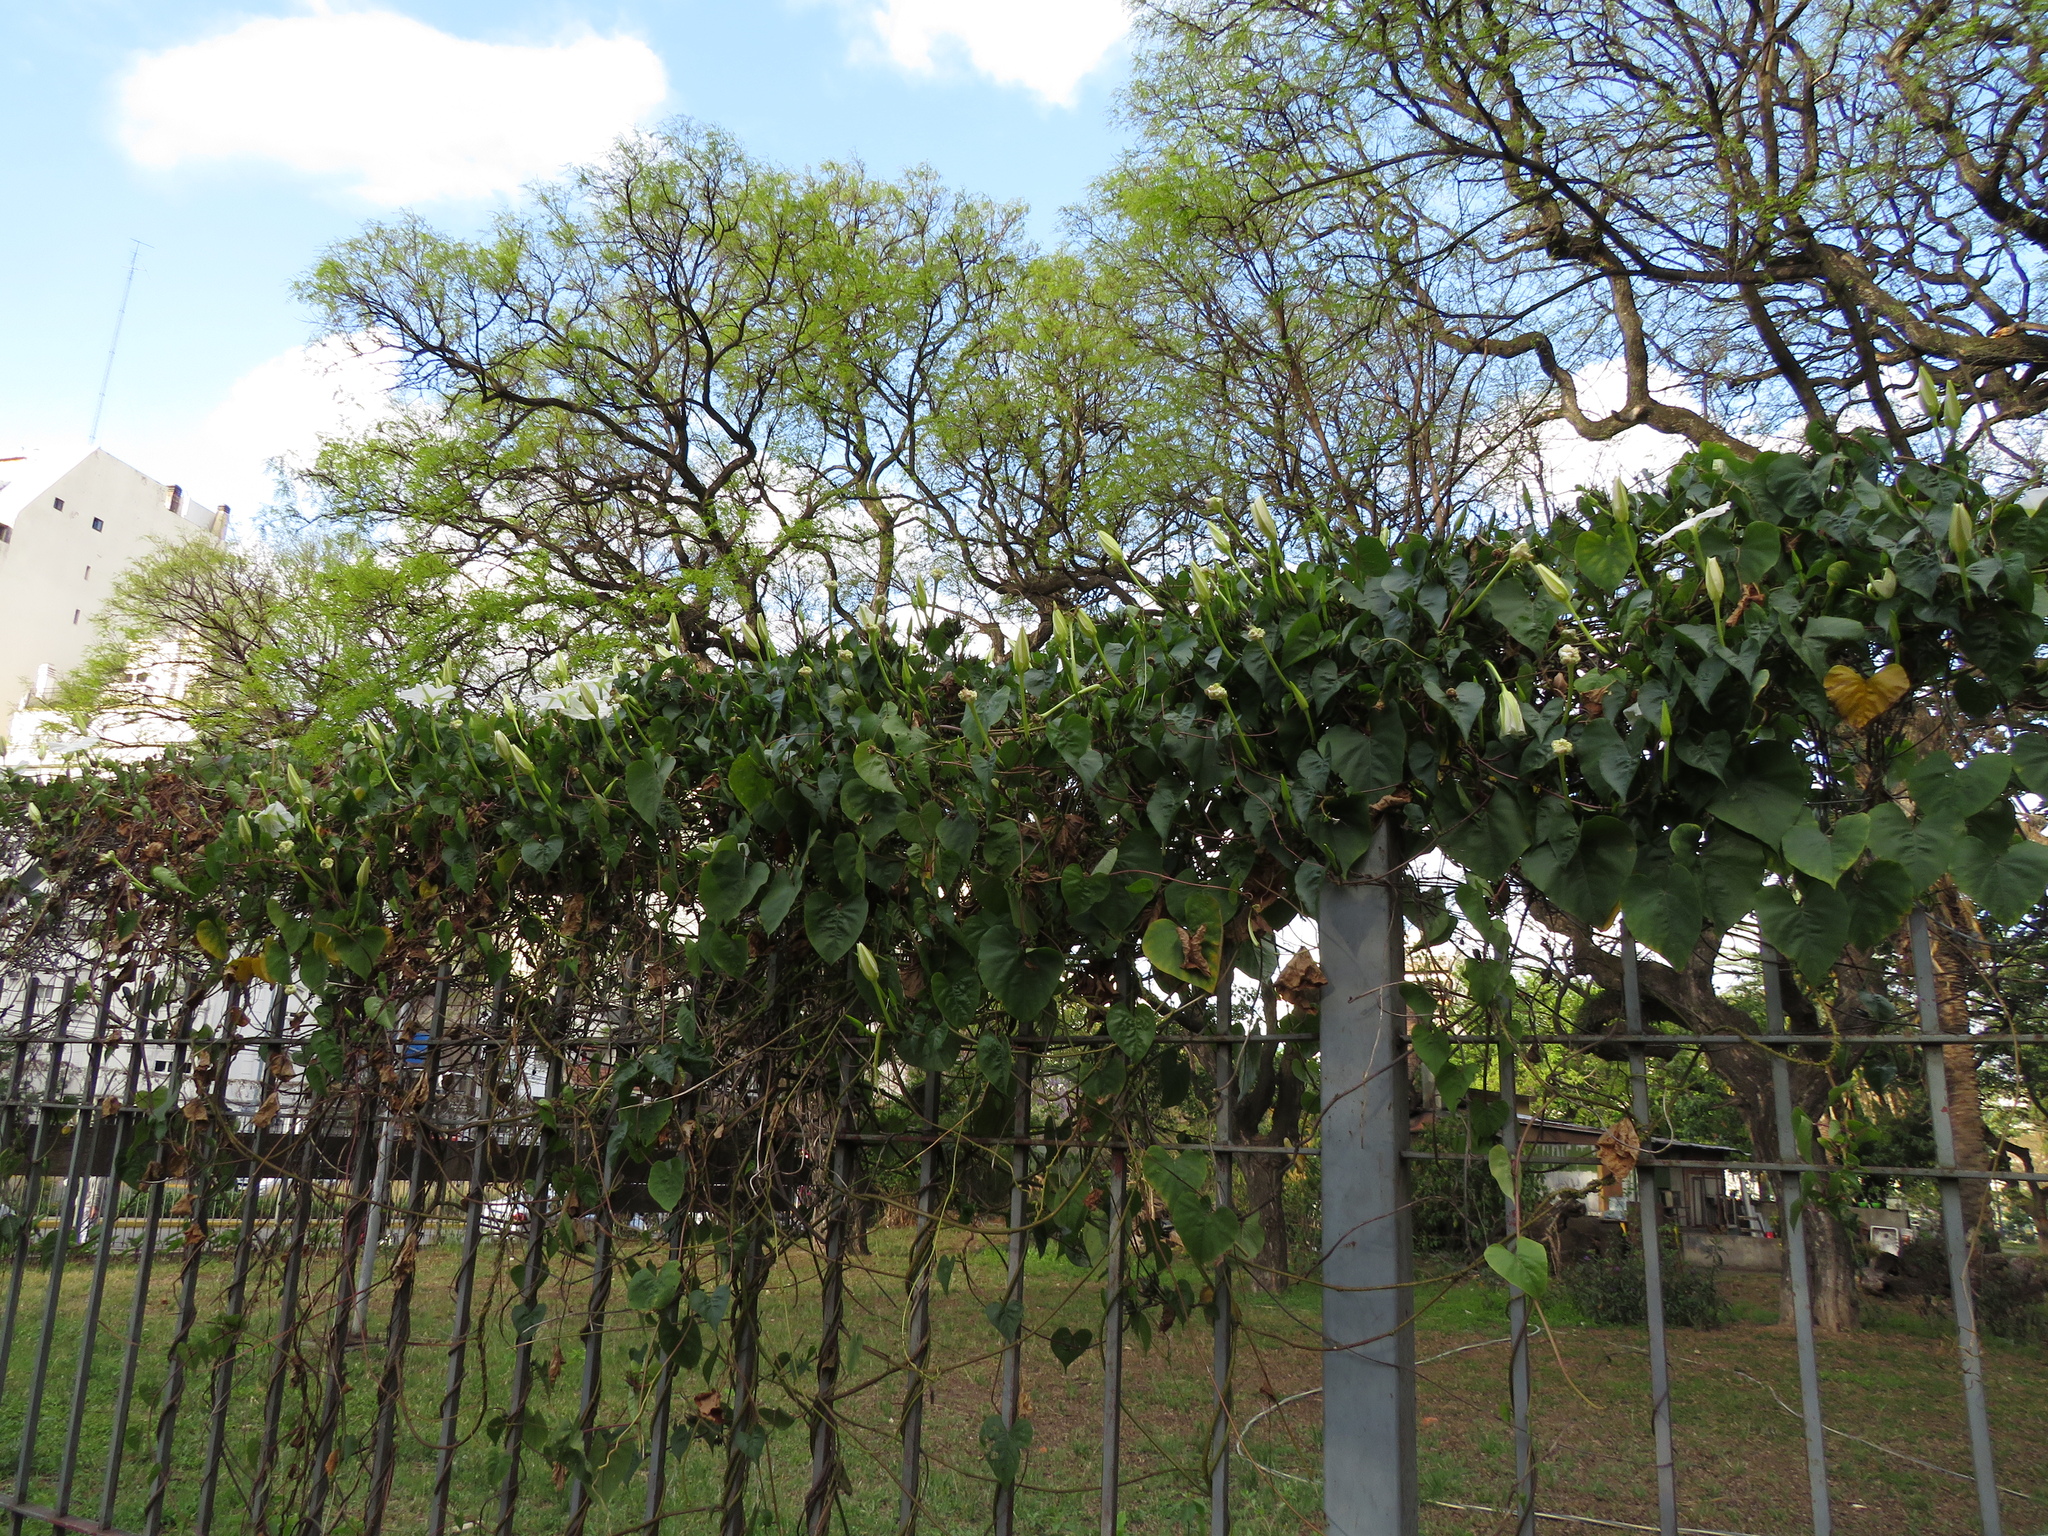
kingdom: Plantae
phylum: Tracheophyta
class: Magnoliopsida
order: Solanales
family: Convolvulaceae
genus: Ipomoea
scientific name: Ipomoea alba
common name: Moonflower
